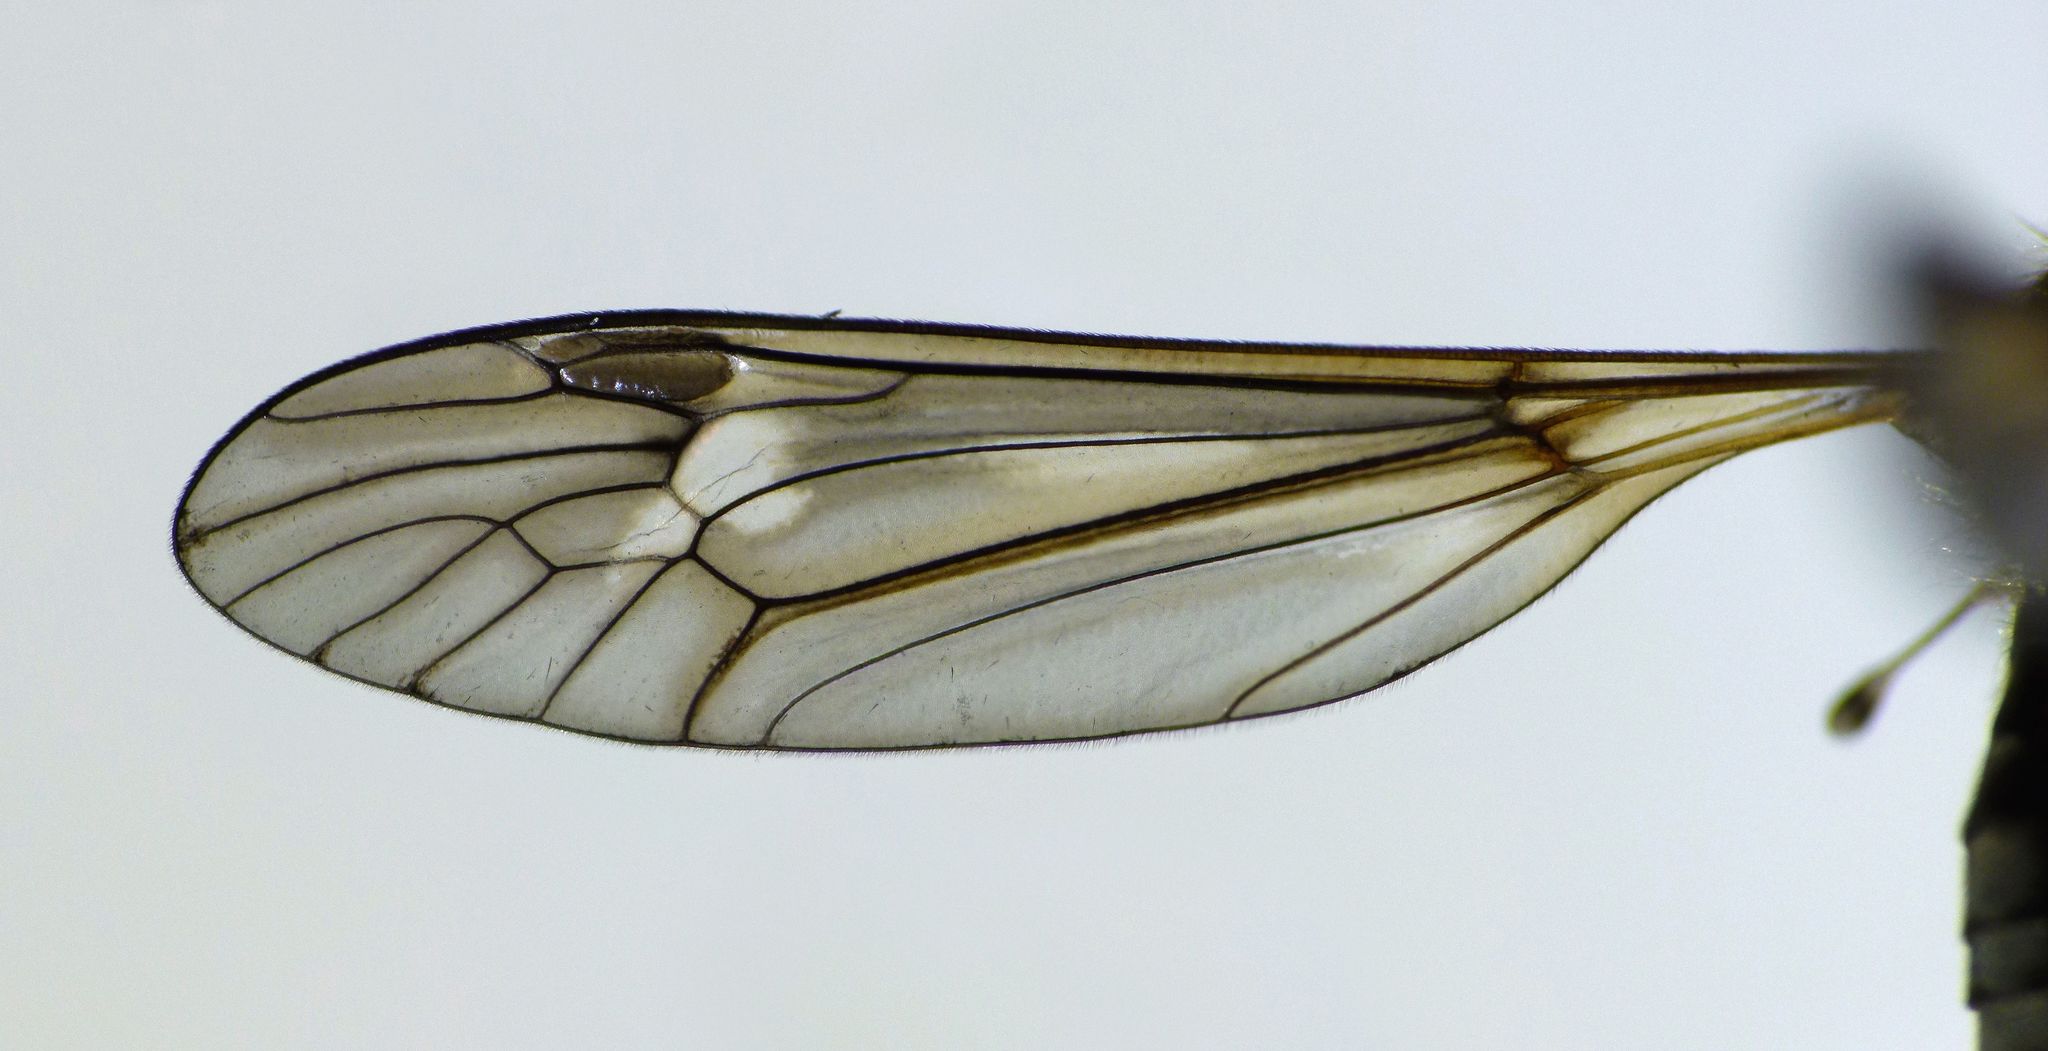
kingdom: Animalia
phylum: Arthropoda
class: Insecta
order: Diptera
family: Tipulidae
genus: Leptotarsus
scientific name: Leptotarsus rufibasis
